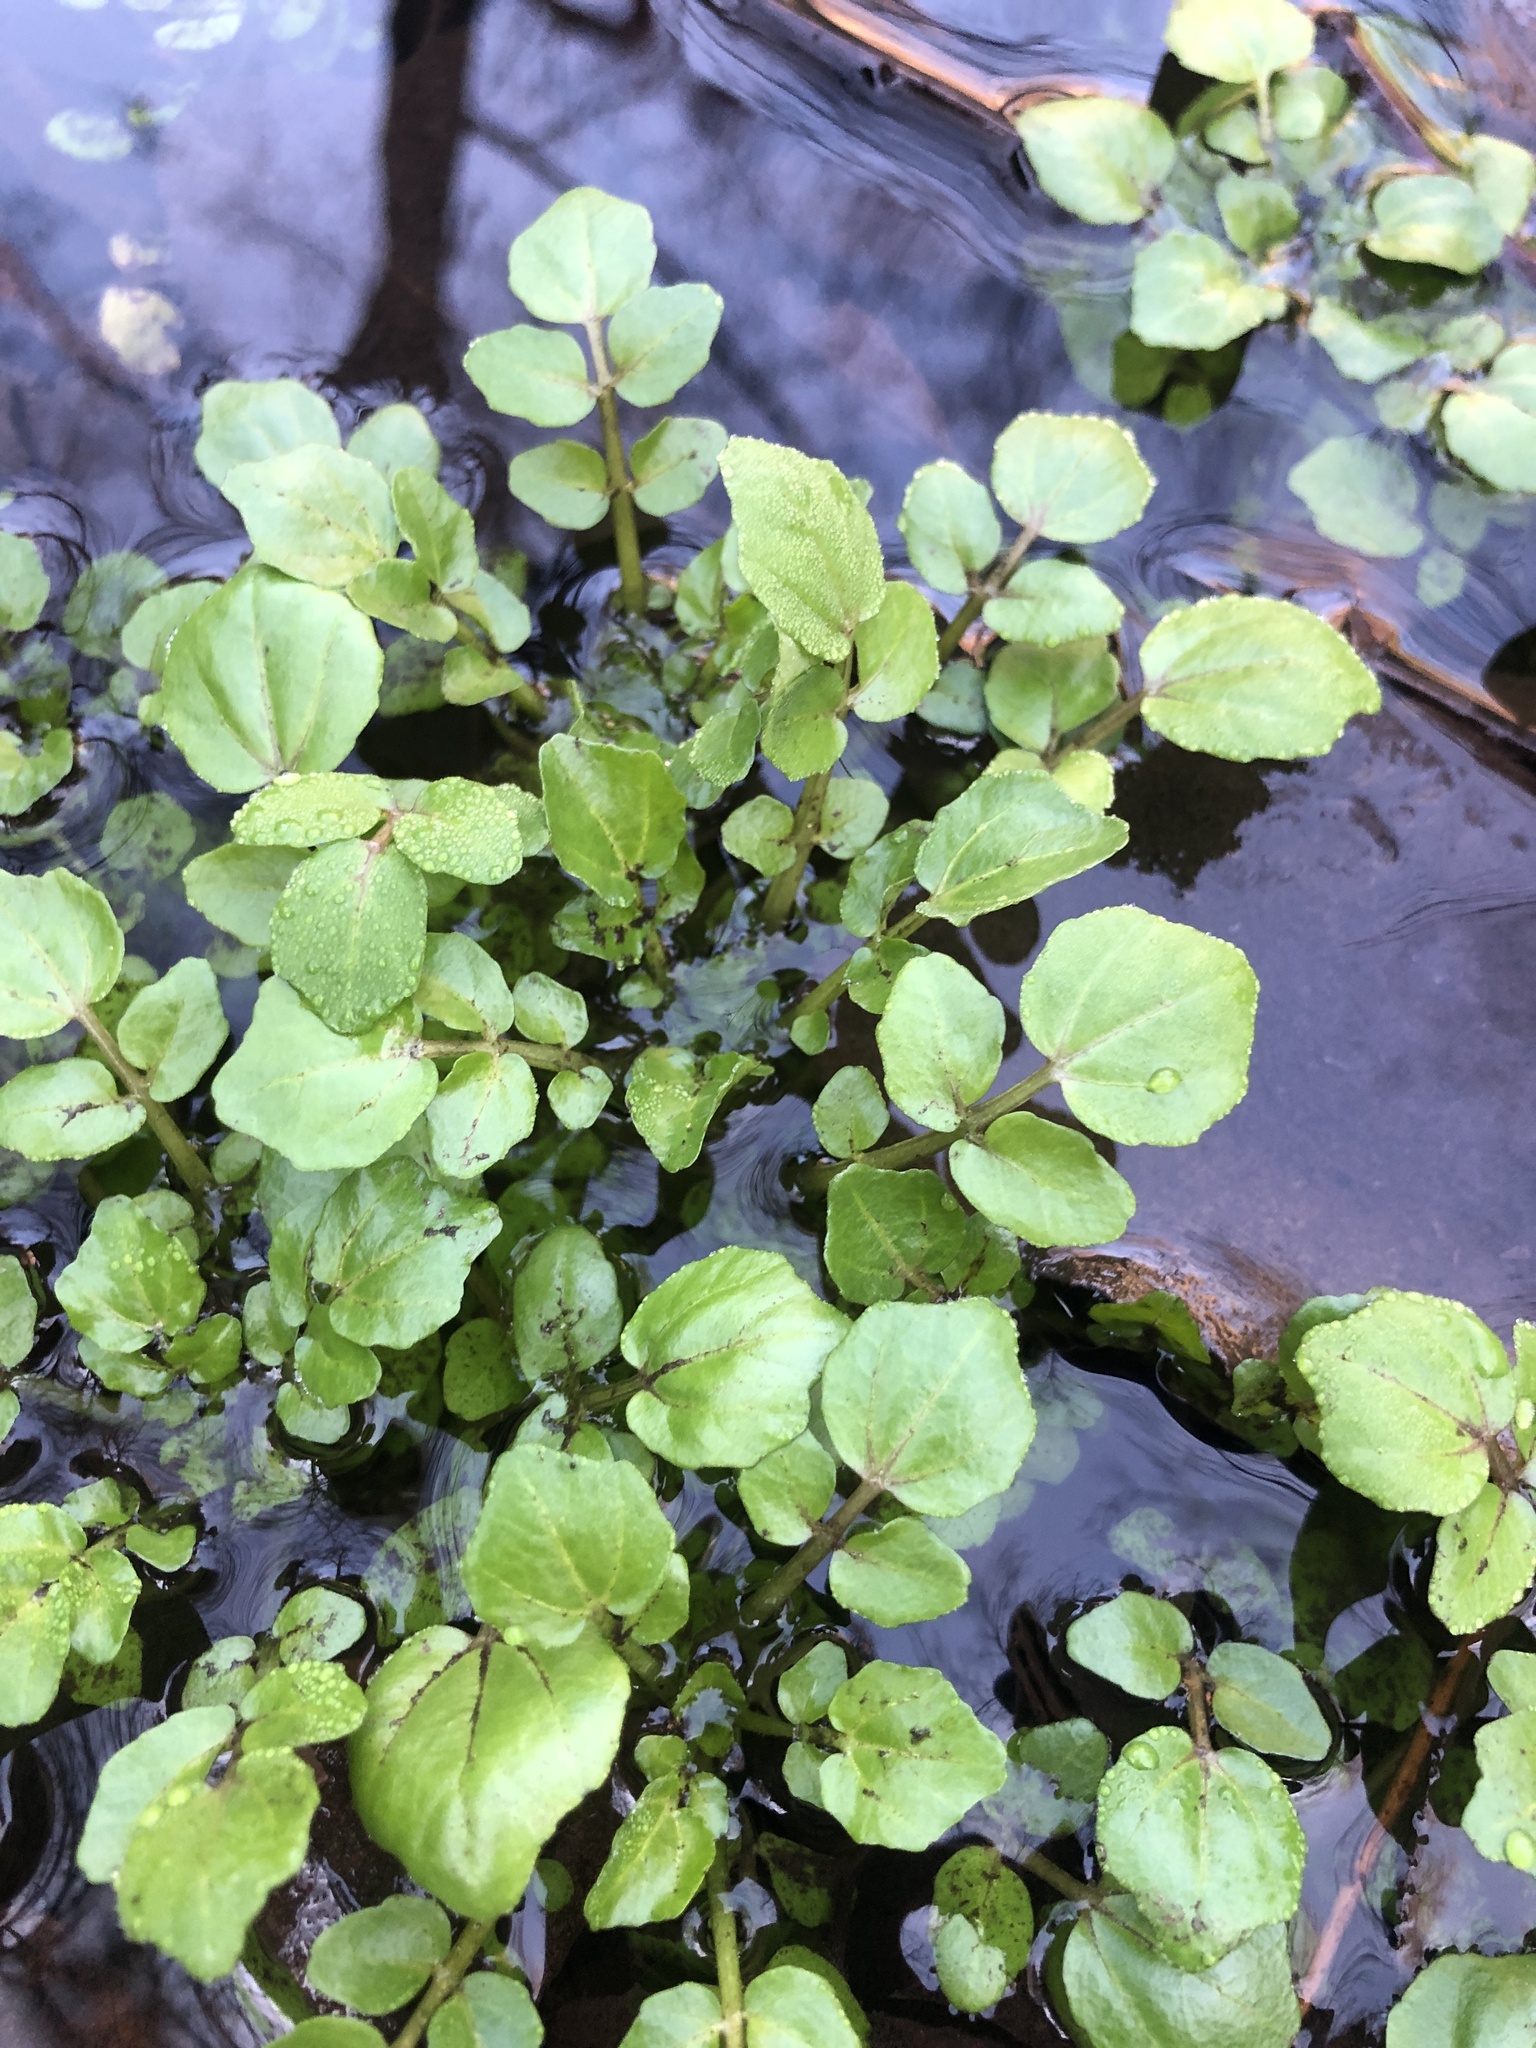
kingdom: Plantae
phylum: Tracheophyta
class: Magnoliopsida
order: Brassicales
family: Brassicaceae
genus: Nasturtium
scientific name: Nasturtium officinale
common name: Watercress
